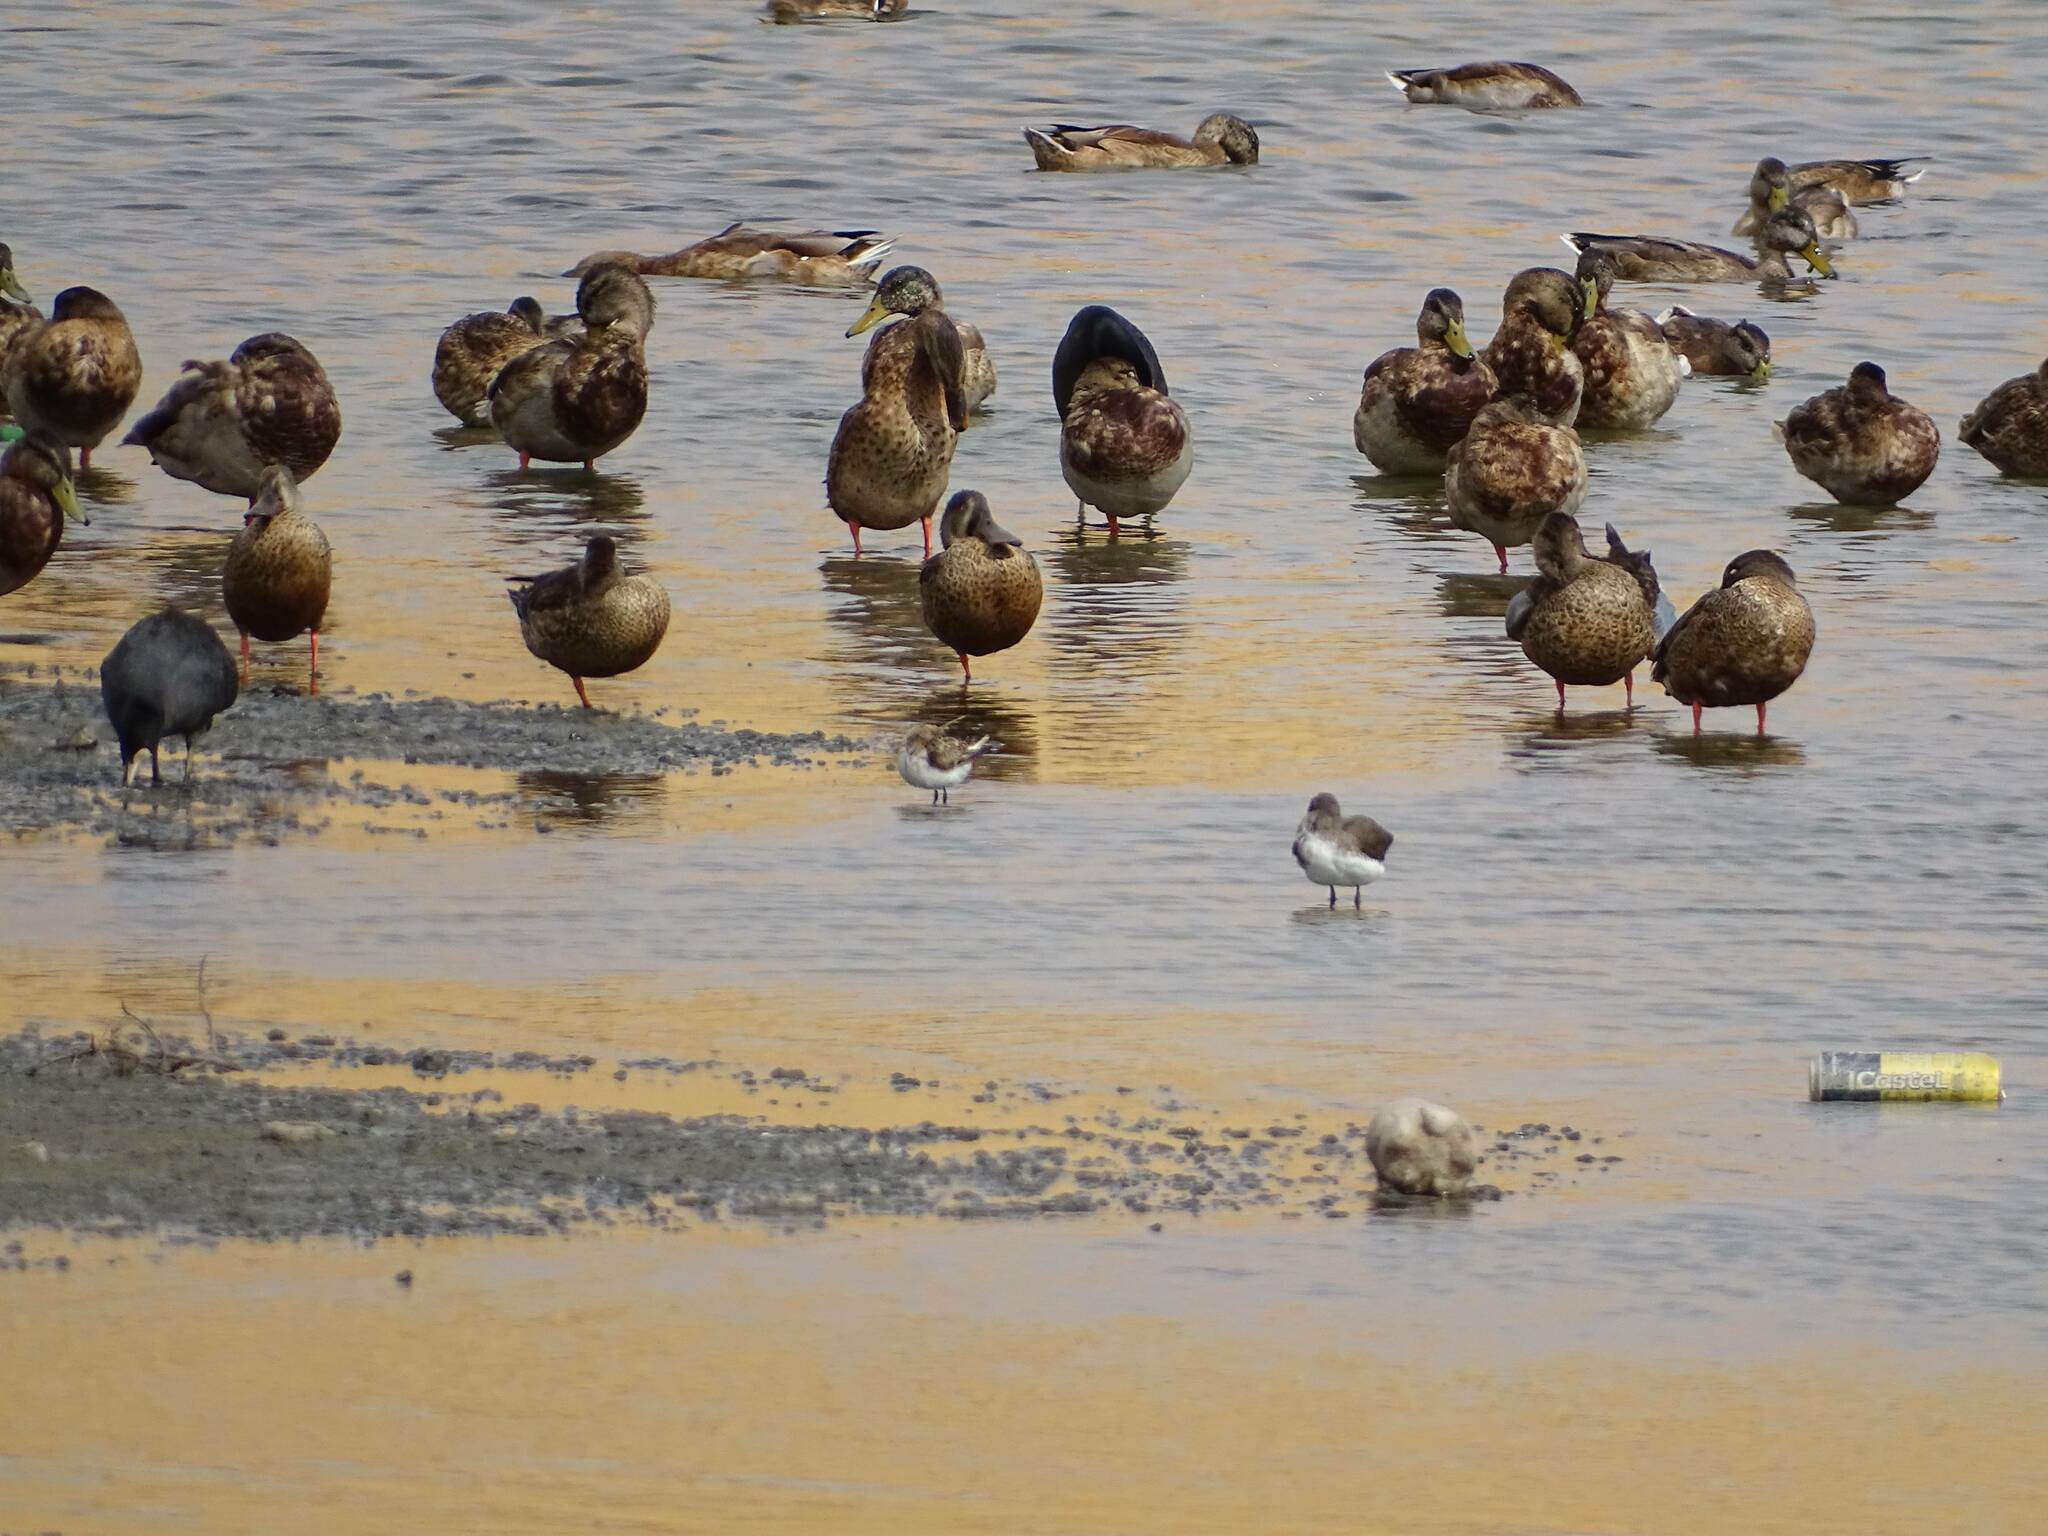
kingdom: Animalia
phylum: Chordata
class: Aves
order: Anseriformes
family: Anatidae
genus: Spatula
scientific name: Spatula clypeata
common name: Northern shoveler
